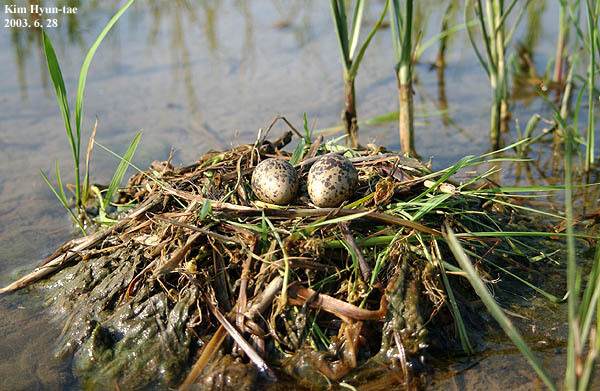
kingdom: Animalia
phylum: Chordata
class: Aves
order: Charadriiformes
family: Recurvirostridae
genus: Himantopus
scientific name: Himantopus himantopus
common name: Black-winged stilt
